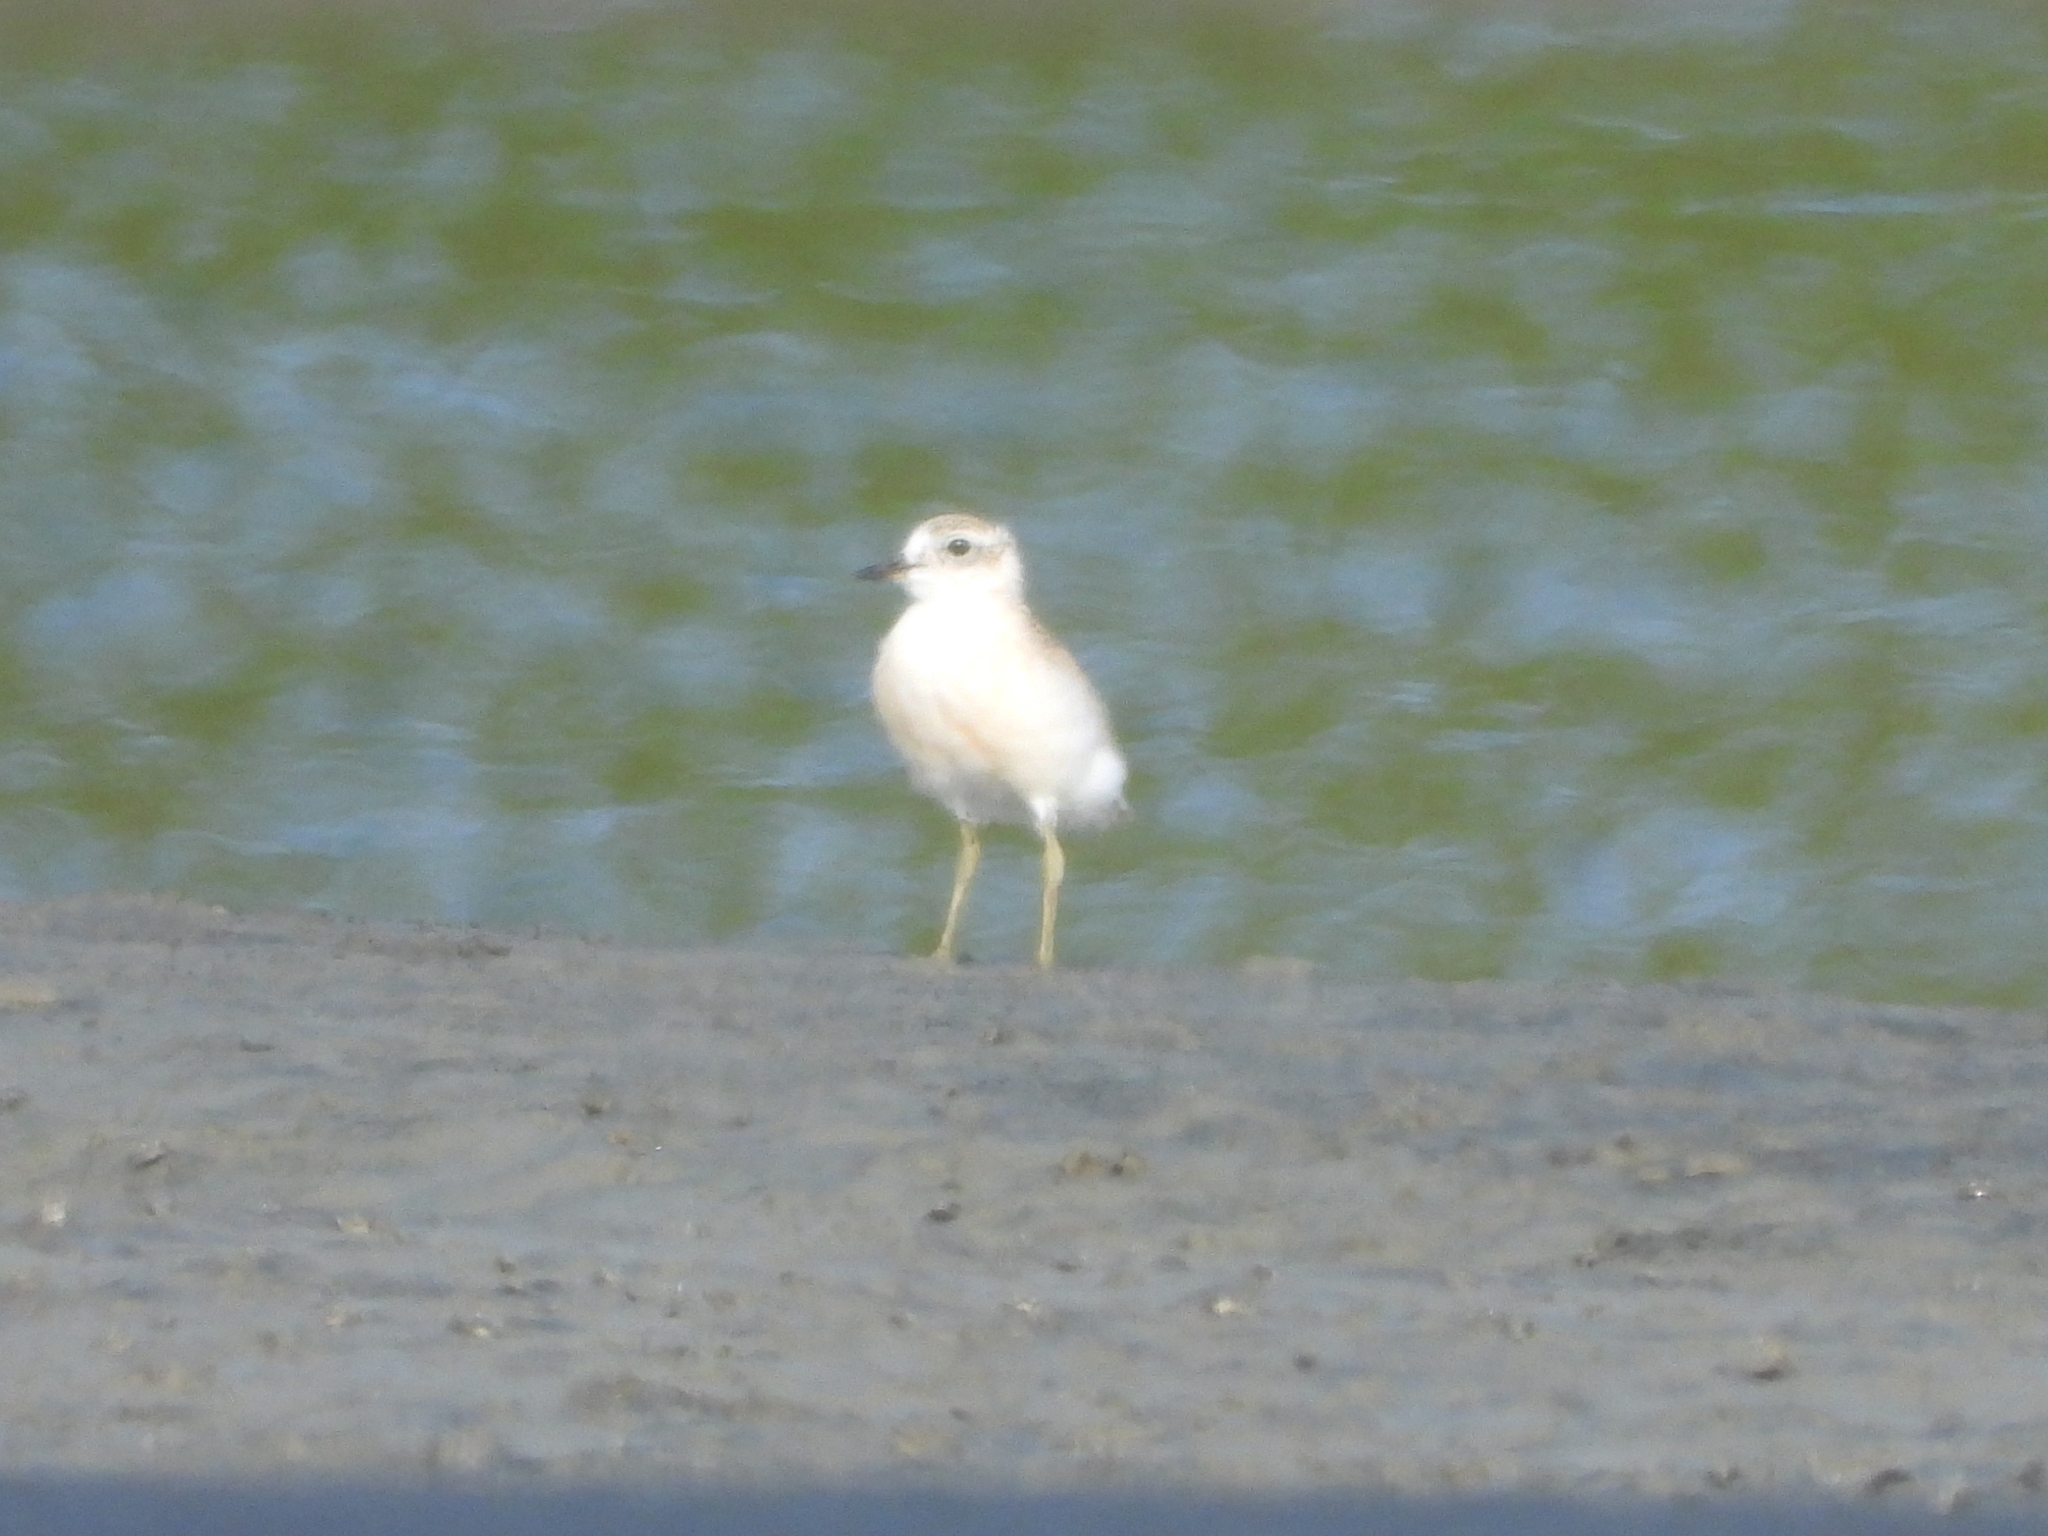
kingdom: Animalia
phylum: Chordata
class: Aves
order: Charadriiformes
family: Charadriidae
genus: Anarhynchus
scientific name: Anarhynchus
